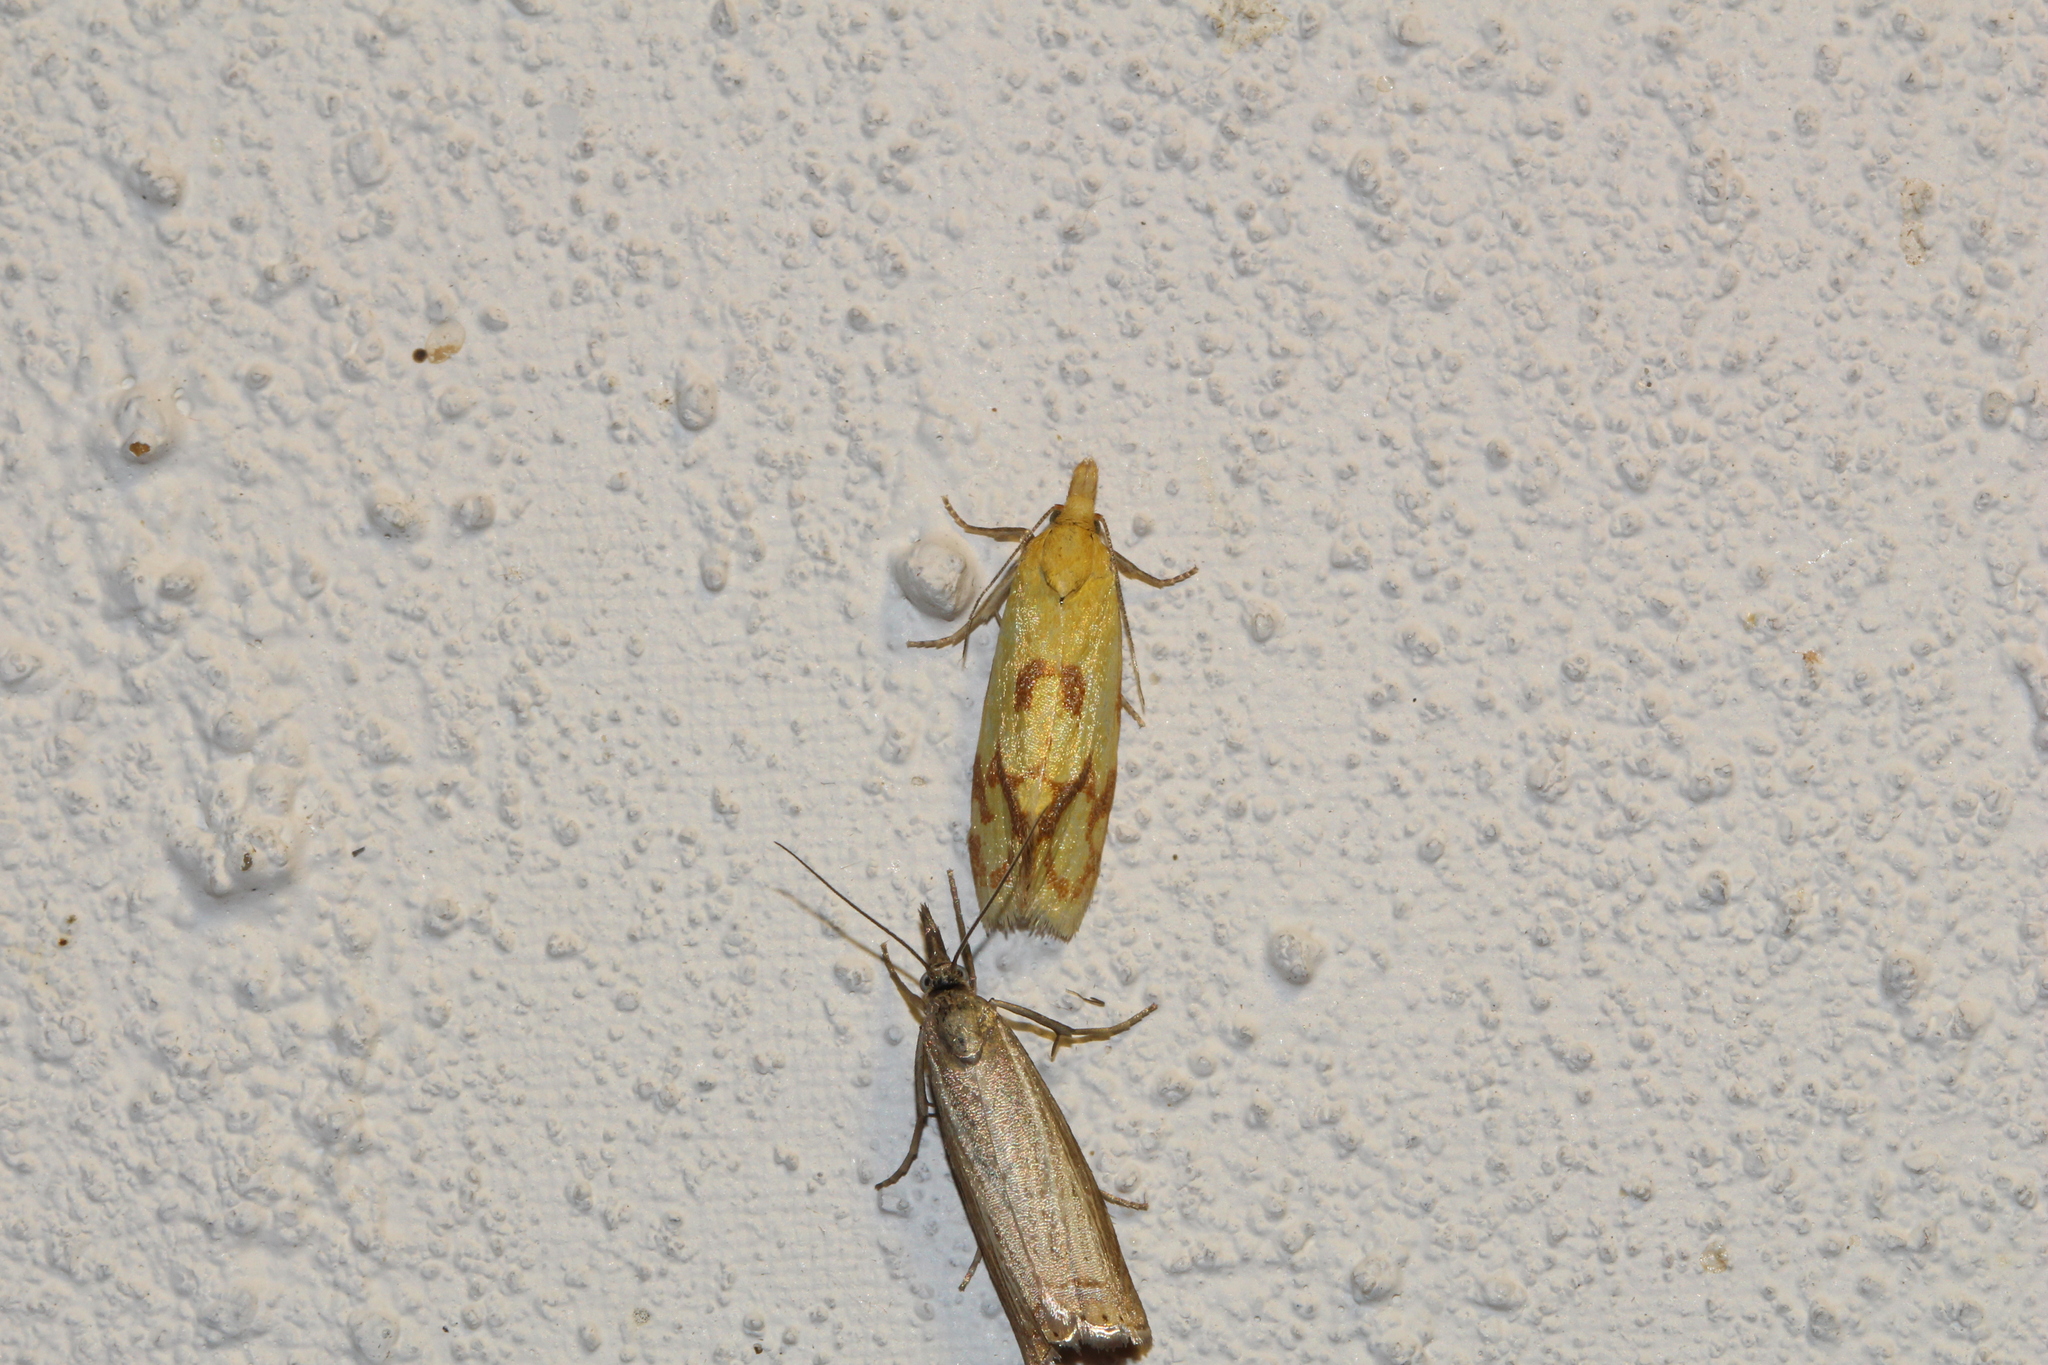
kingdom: Animalia
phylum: Arthropoda
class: Insecta
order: Lepidoptera
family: Tortricidae
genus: Agapeta
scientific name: Agapeta hamana
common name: Common yellow conch
